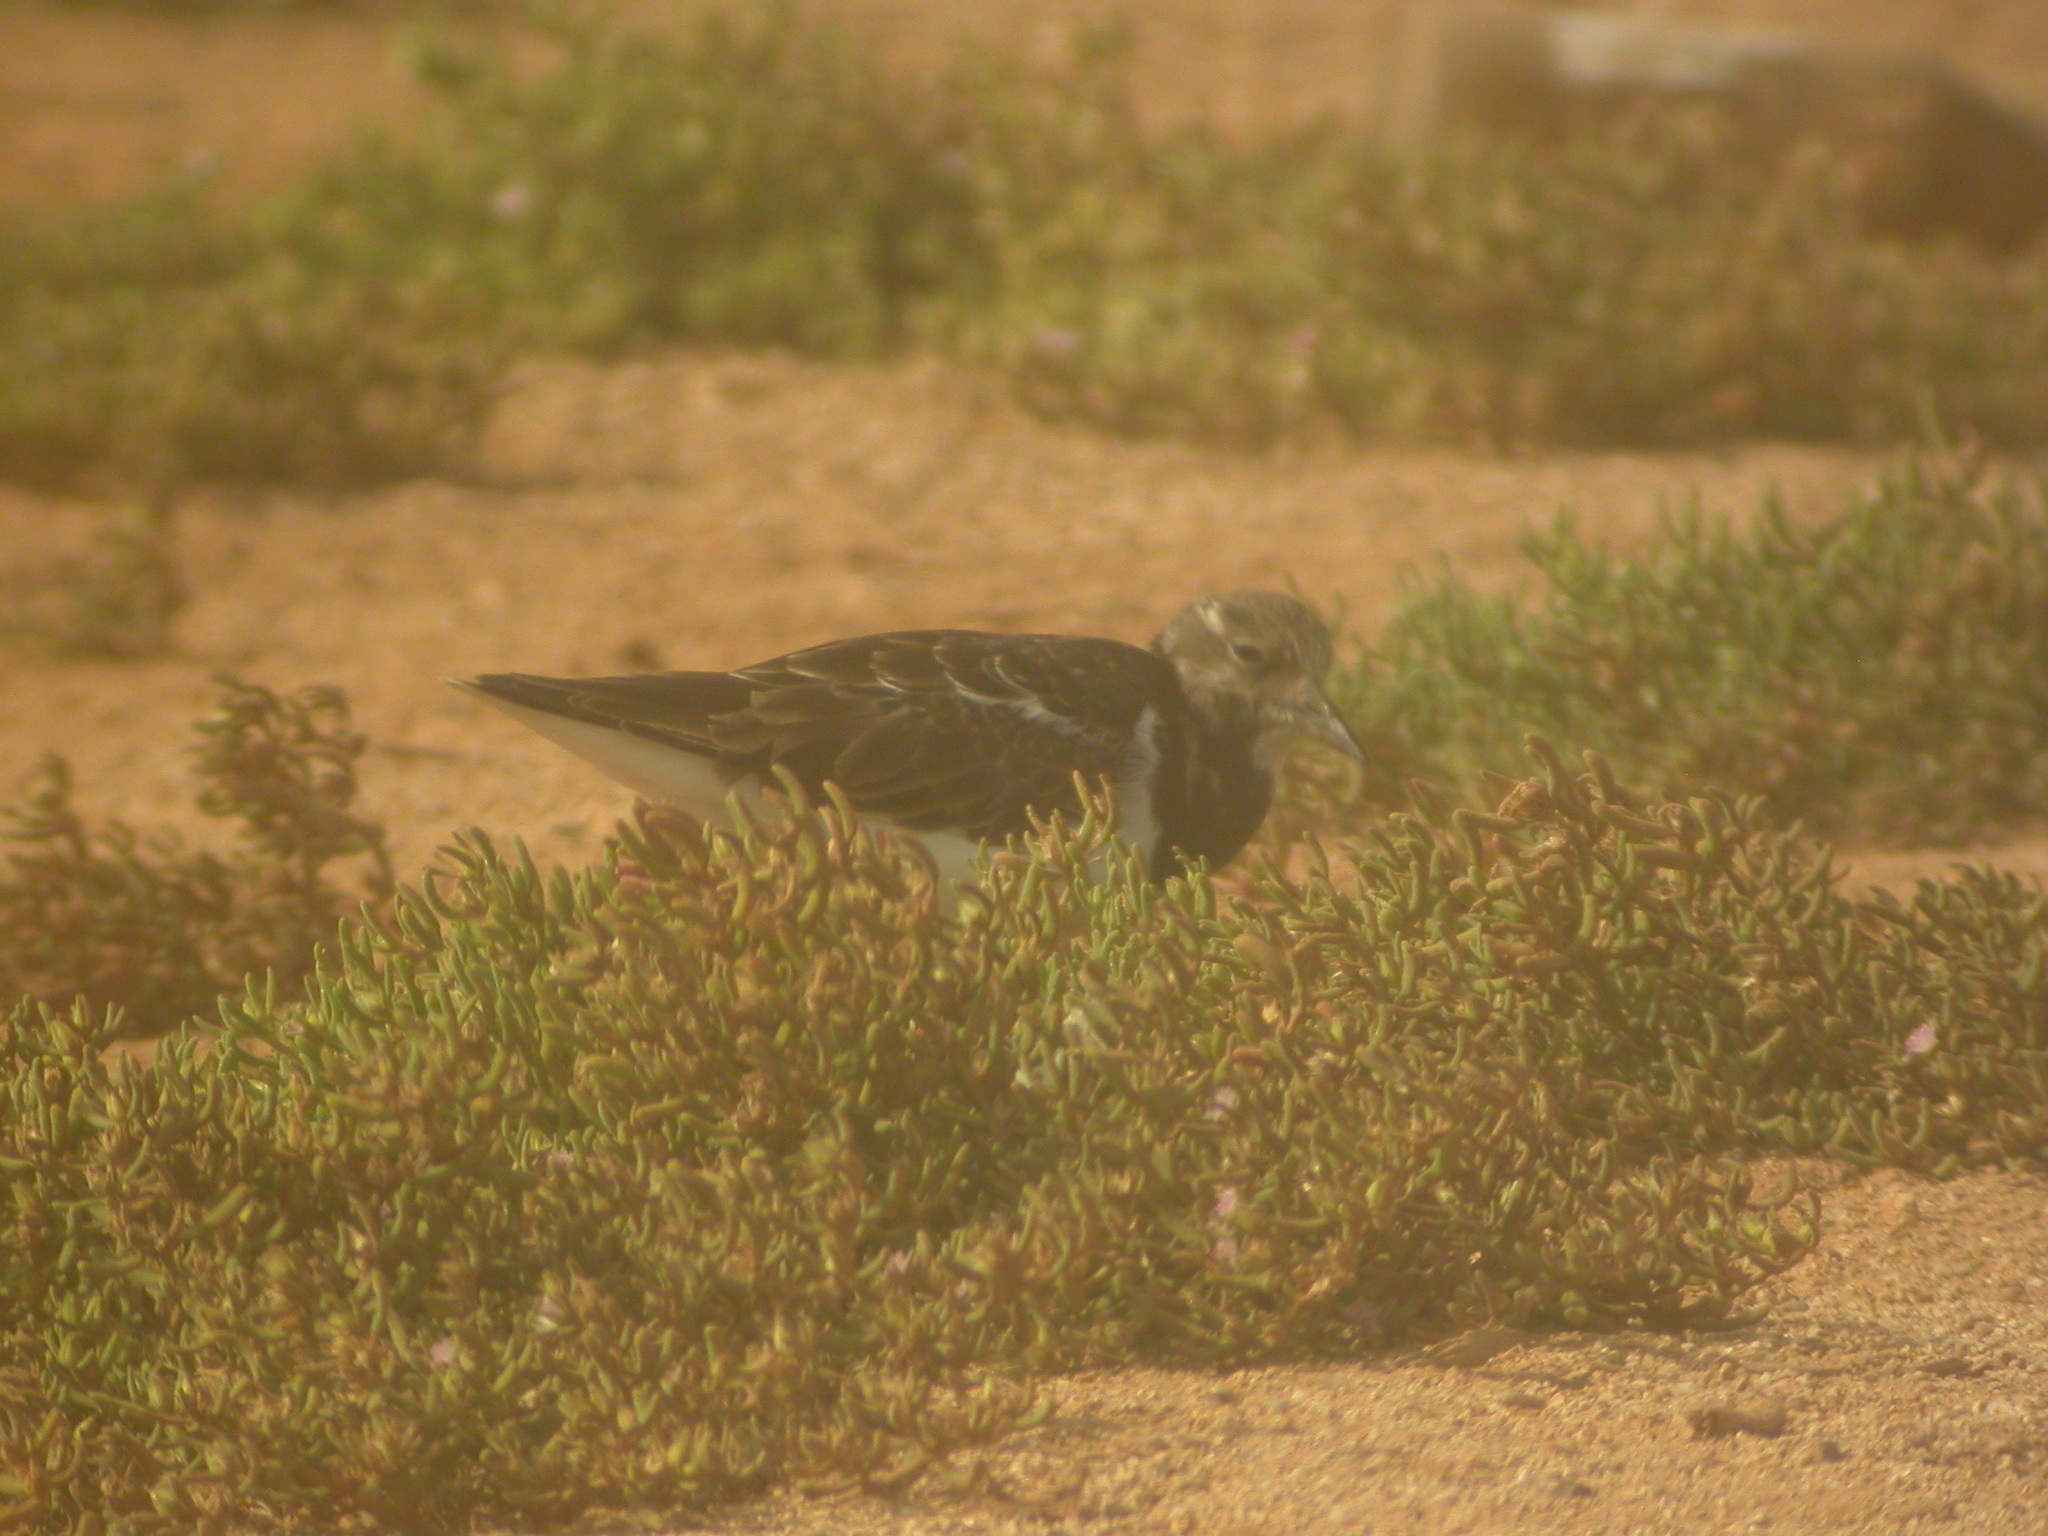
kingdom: Animalia
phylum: Chordata
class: Aves
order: Charadriiformes
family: Scolopacidae
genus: Arenaria
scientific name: Arenaria interpres
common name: Ruddy turnstone
